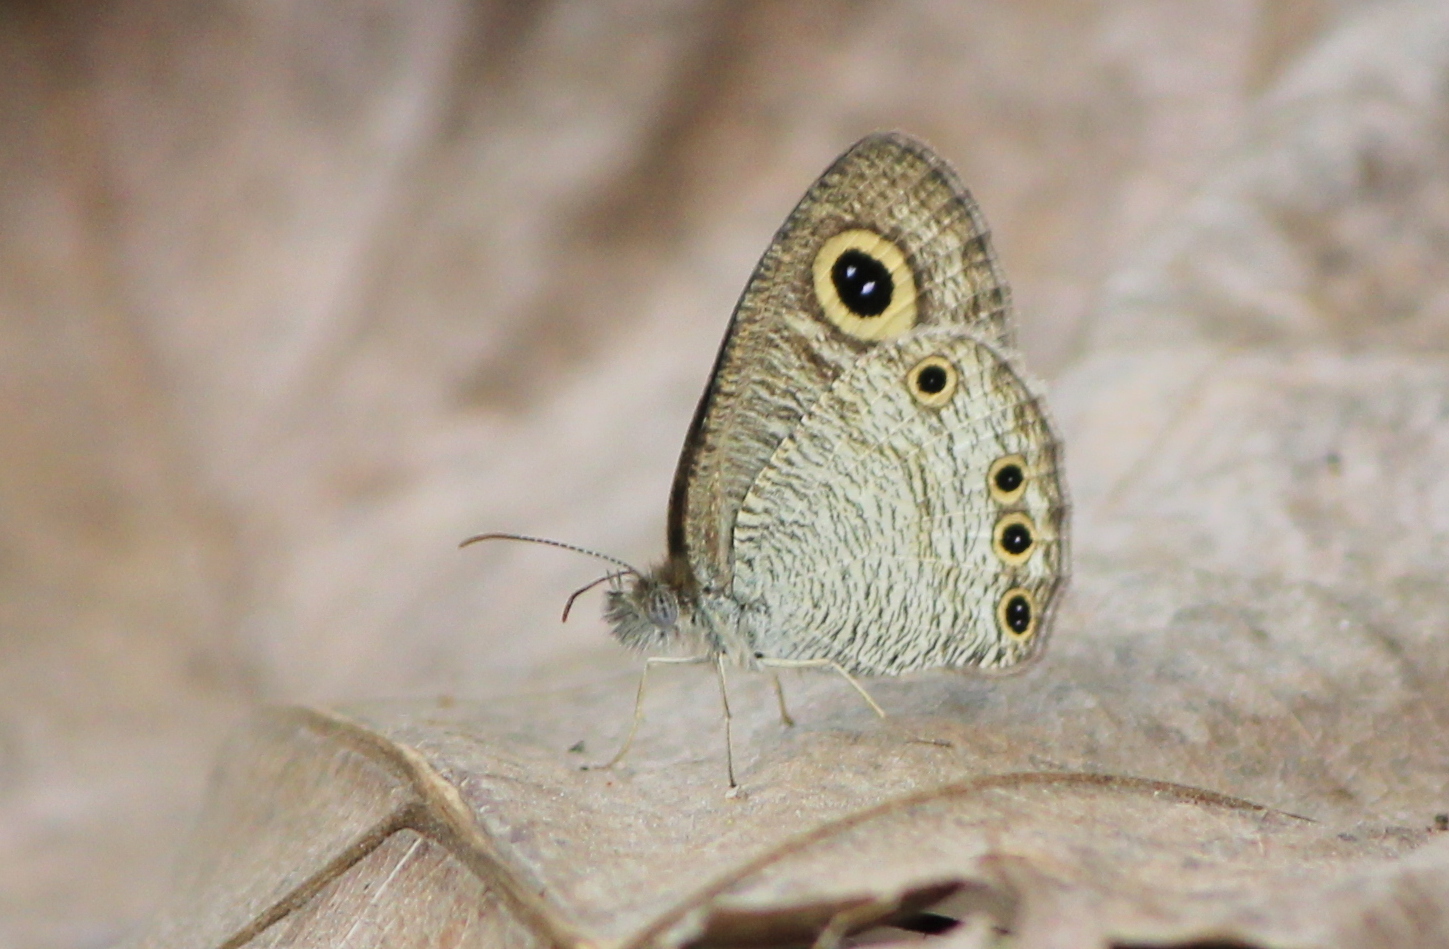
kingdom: Animalia
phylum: Arthropoda
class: Insecta
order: Lepidoptera
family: Nymphalidae
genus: Ypthima
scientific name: Ypthima huebneri
